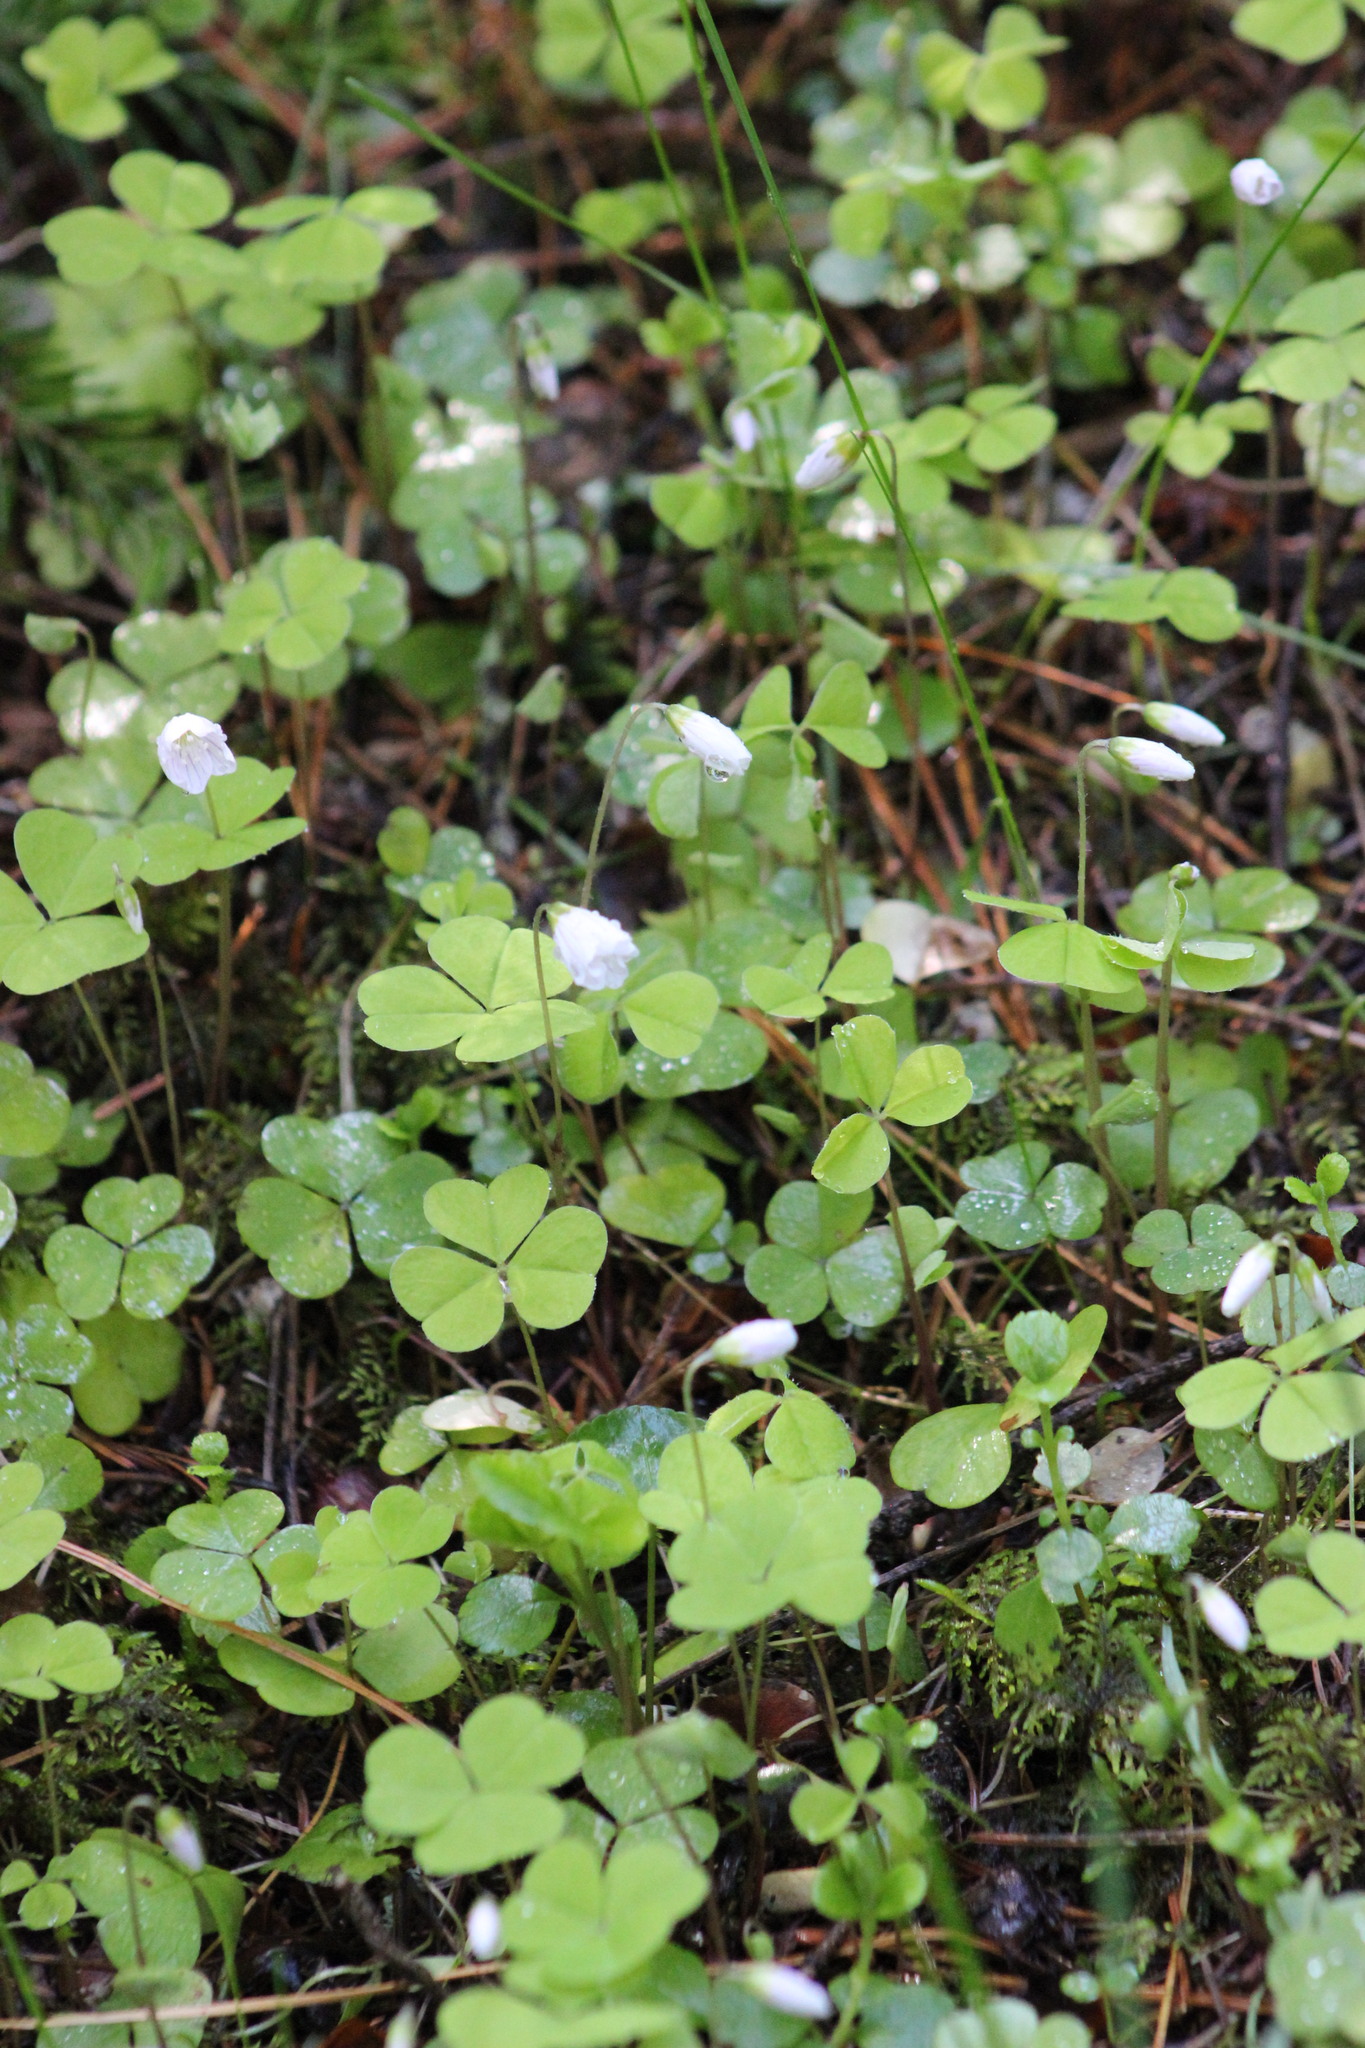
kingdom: Plantae
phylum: Tracheophyta
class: Magnoliopsida
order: Oxalidales
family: Oxalidaceae
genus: Oxalis
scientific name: Oxalis acetosella
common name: Wood-sorrel
